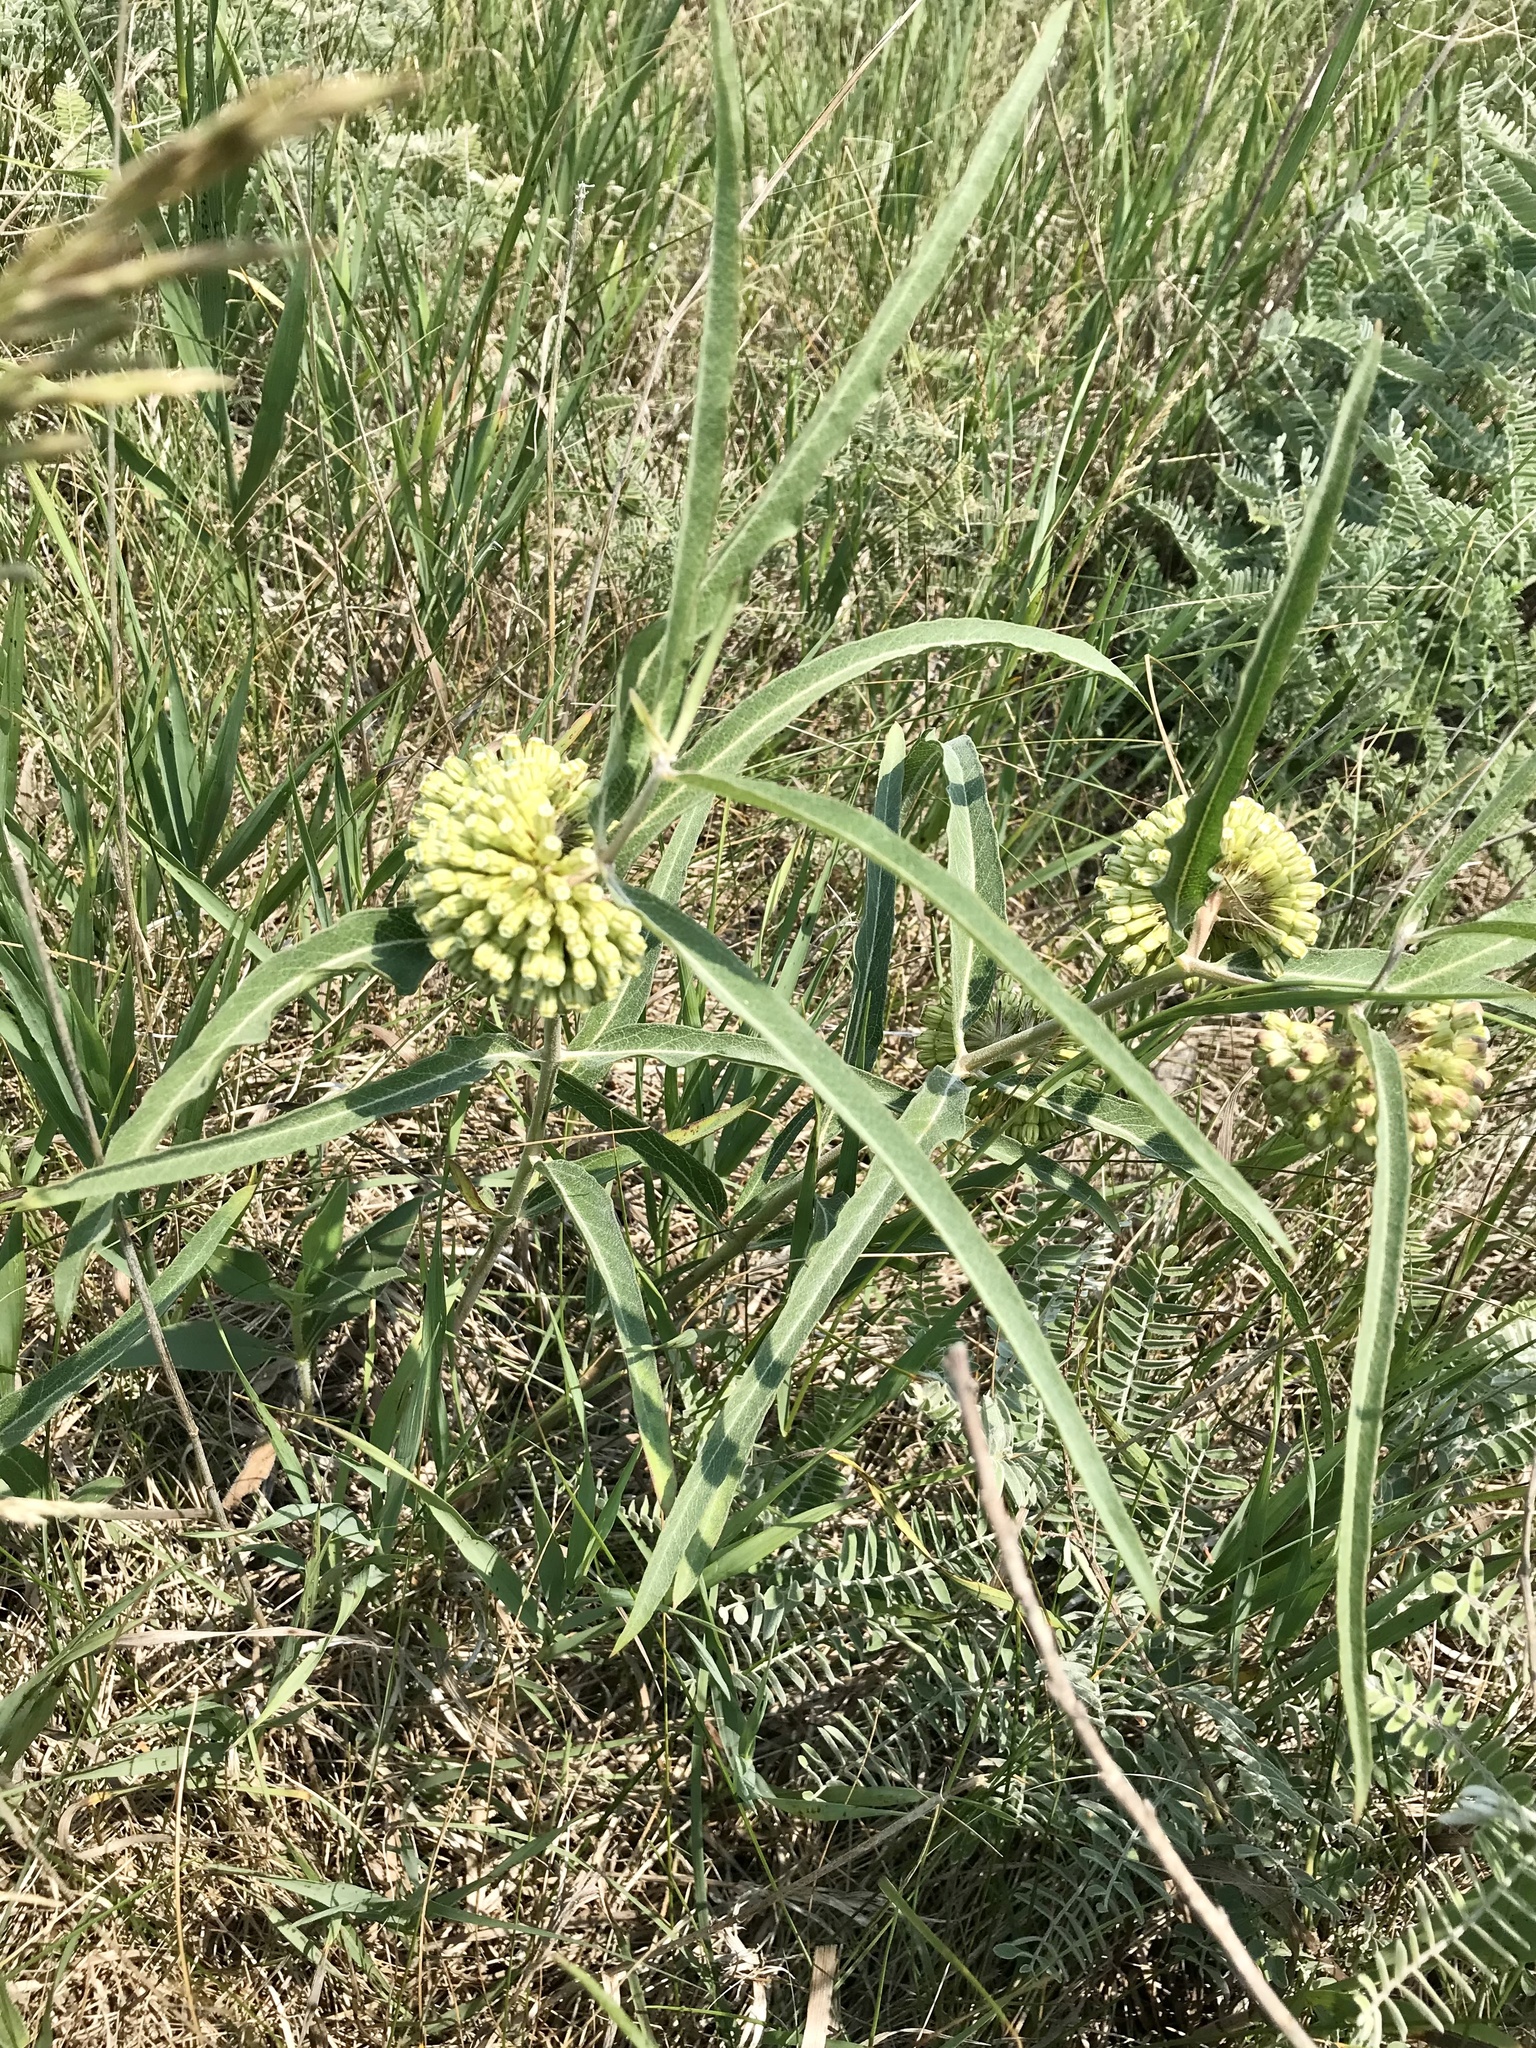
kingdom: Plantae
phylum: Tracheophyta
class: Magnoliopsida
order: Gentianales
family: Apocynaceae
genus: Asclepias
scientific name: Asclepias viridiflora
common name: Green comet milkweed
